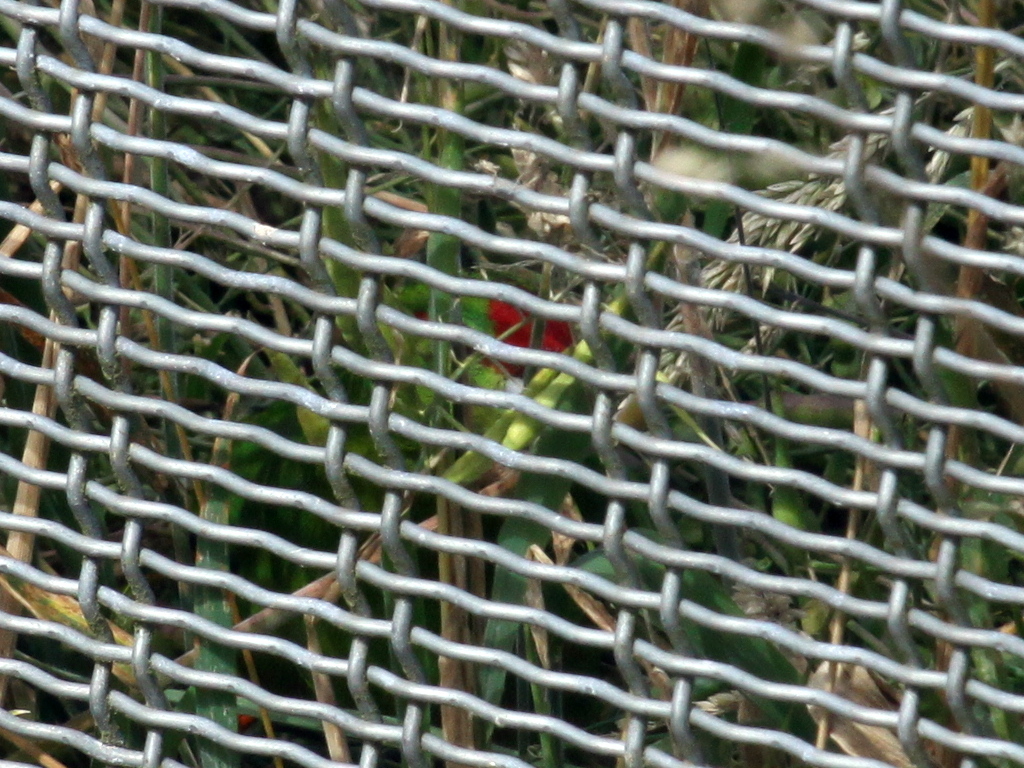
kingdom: Animalia
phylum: Chordata
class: Aves
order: Psittaciformes
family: Psittacidae
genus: Cyanoramphus
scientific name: Cyanoramphus novaezelandiae
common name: Red-fronted parakeet
